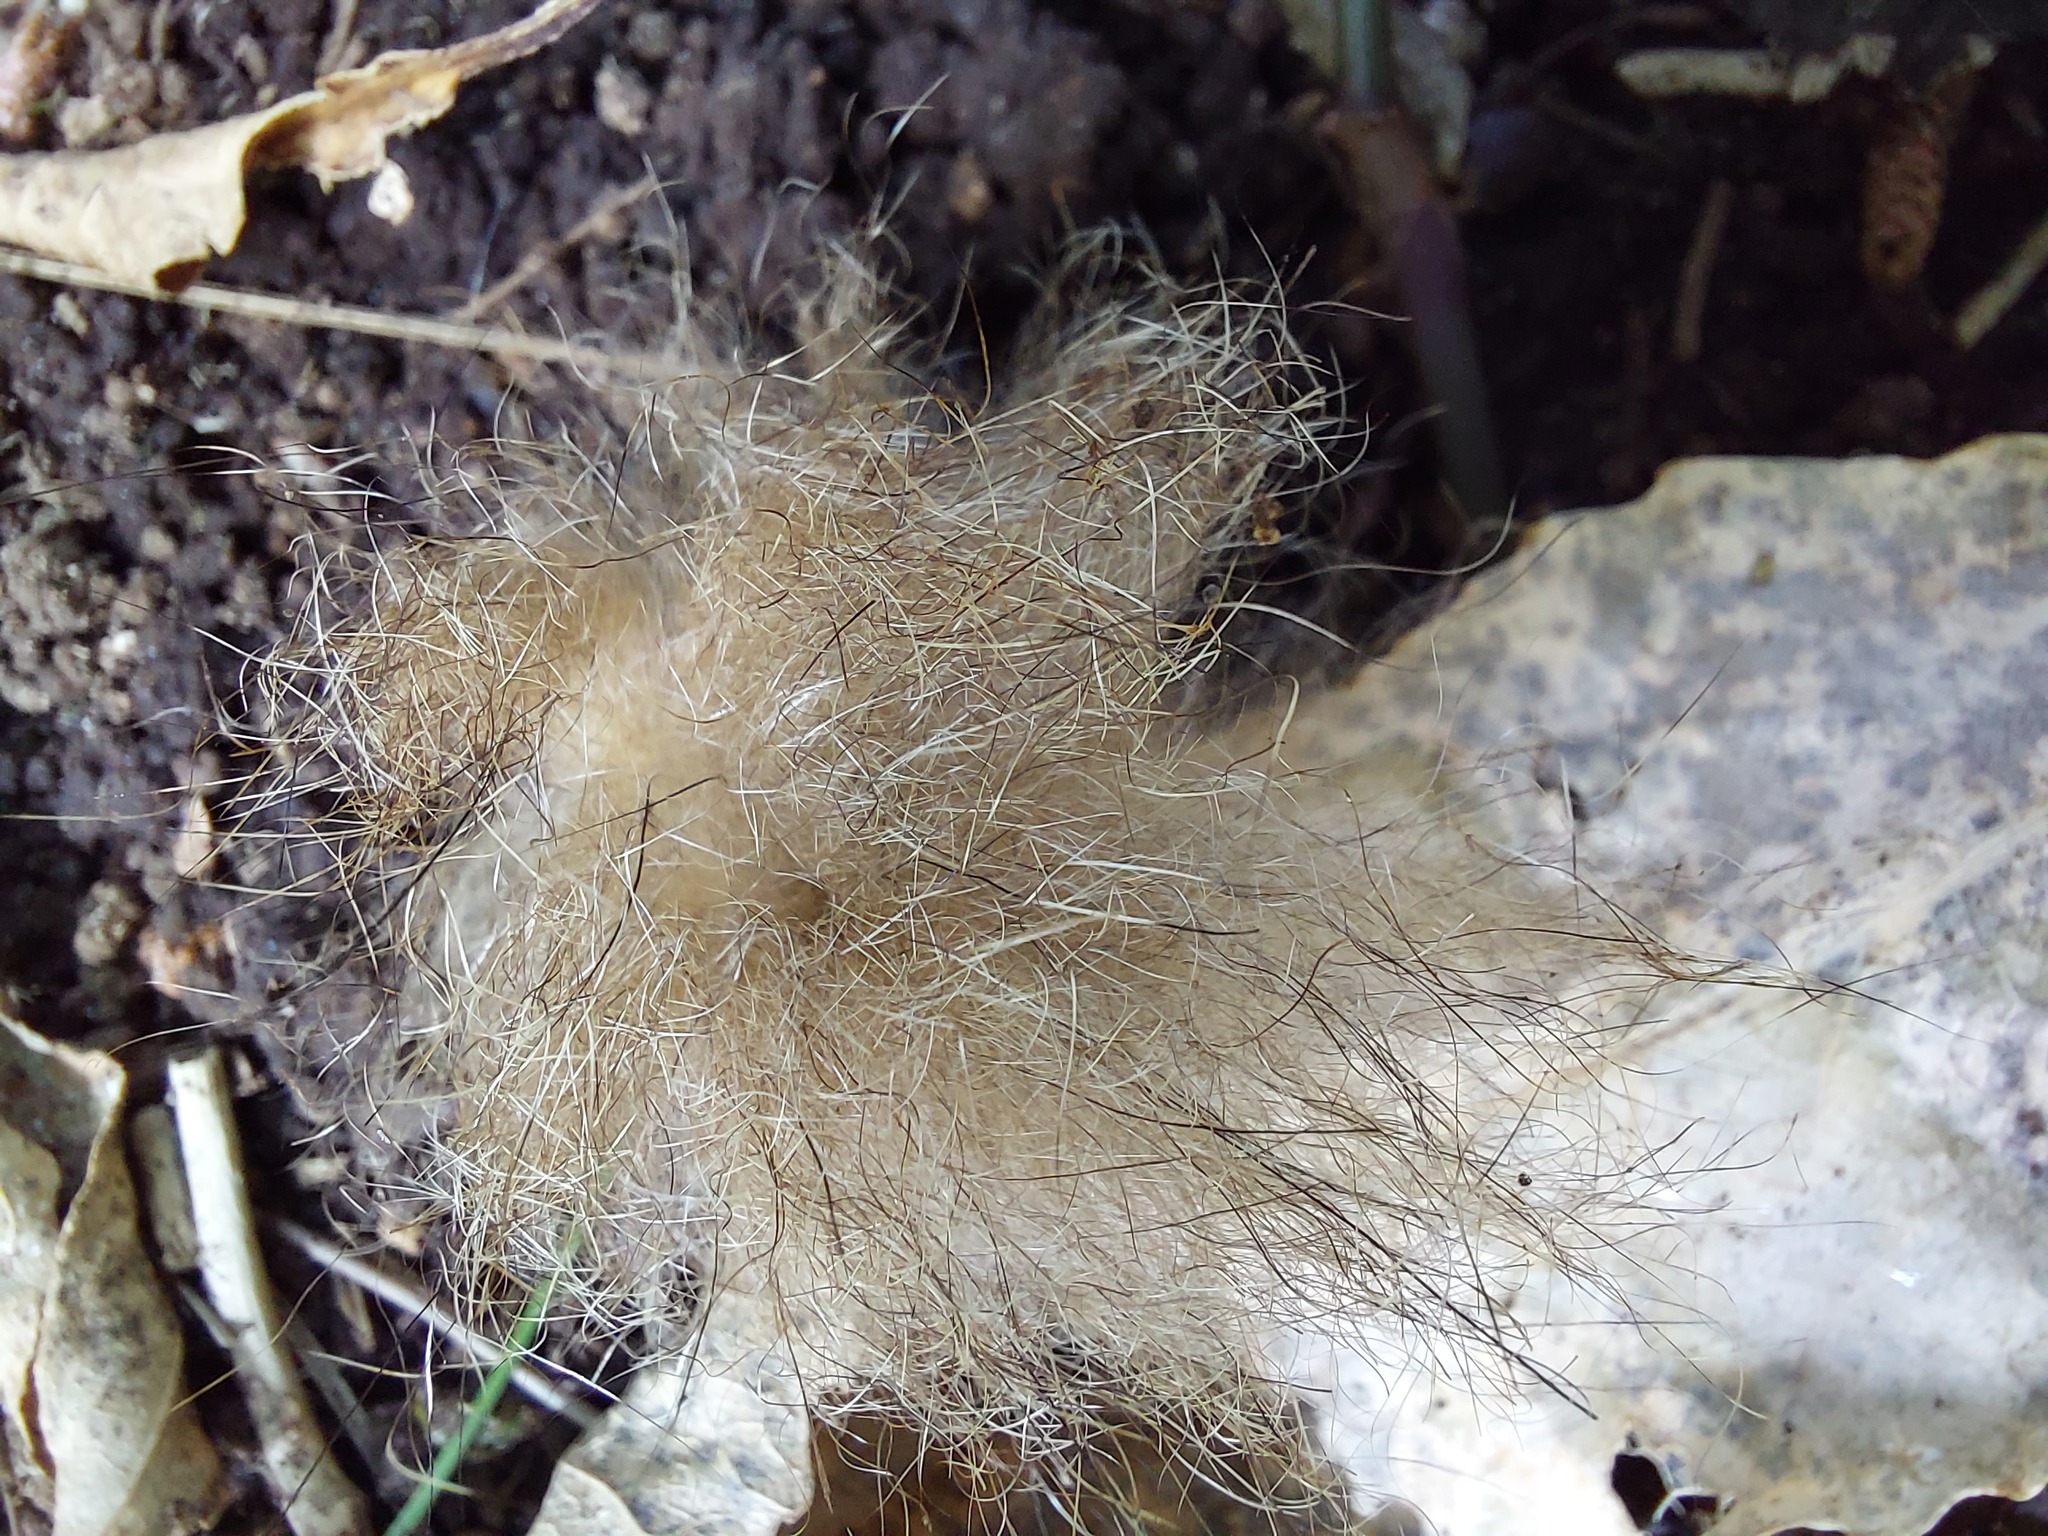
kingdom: Animalia
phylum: Chordata
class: Mammalia
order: Diprotodontia
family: Phalangeridae
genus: Trichosurus
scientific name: Trichosurus vulpecula
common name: Common brushtail
